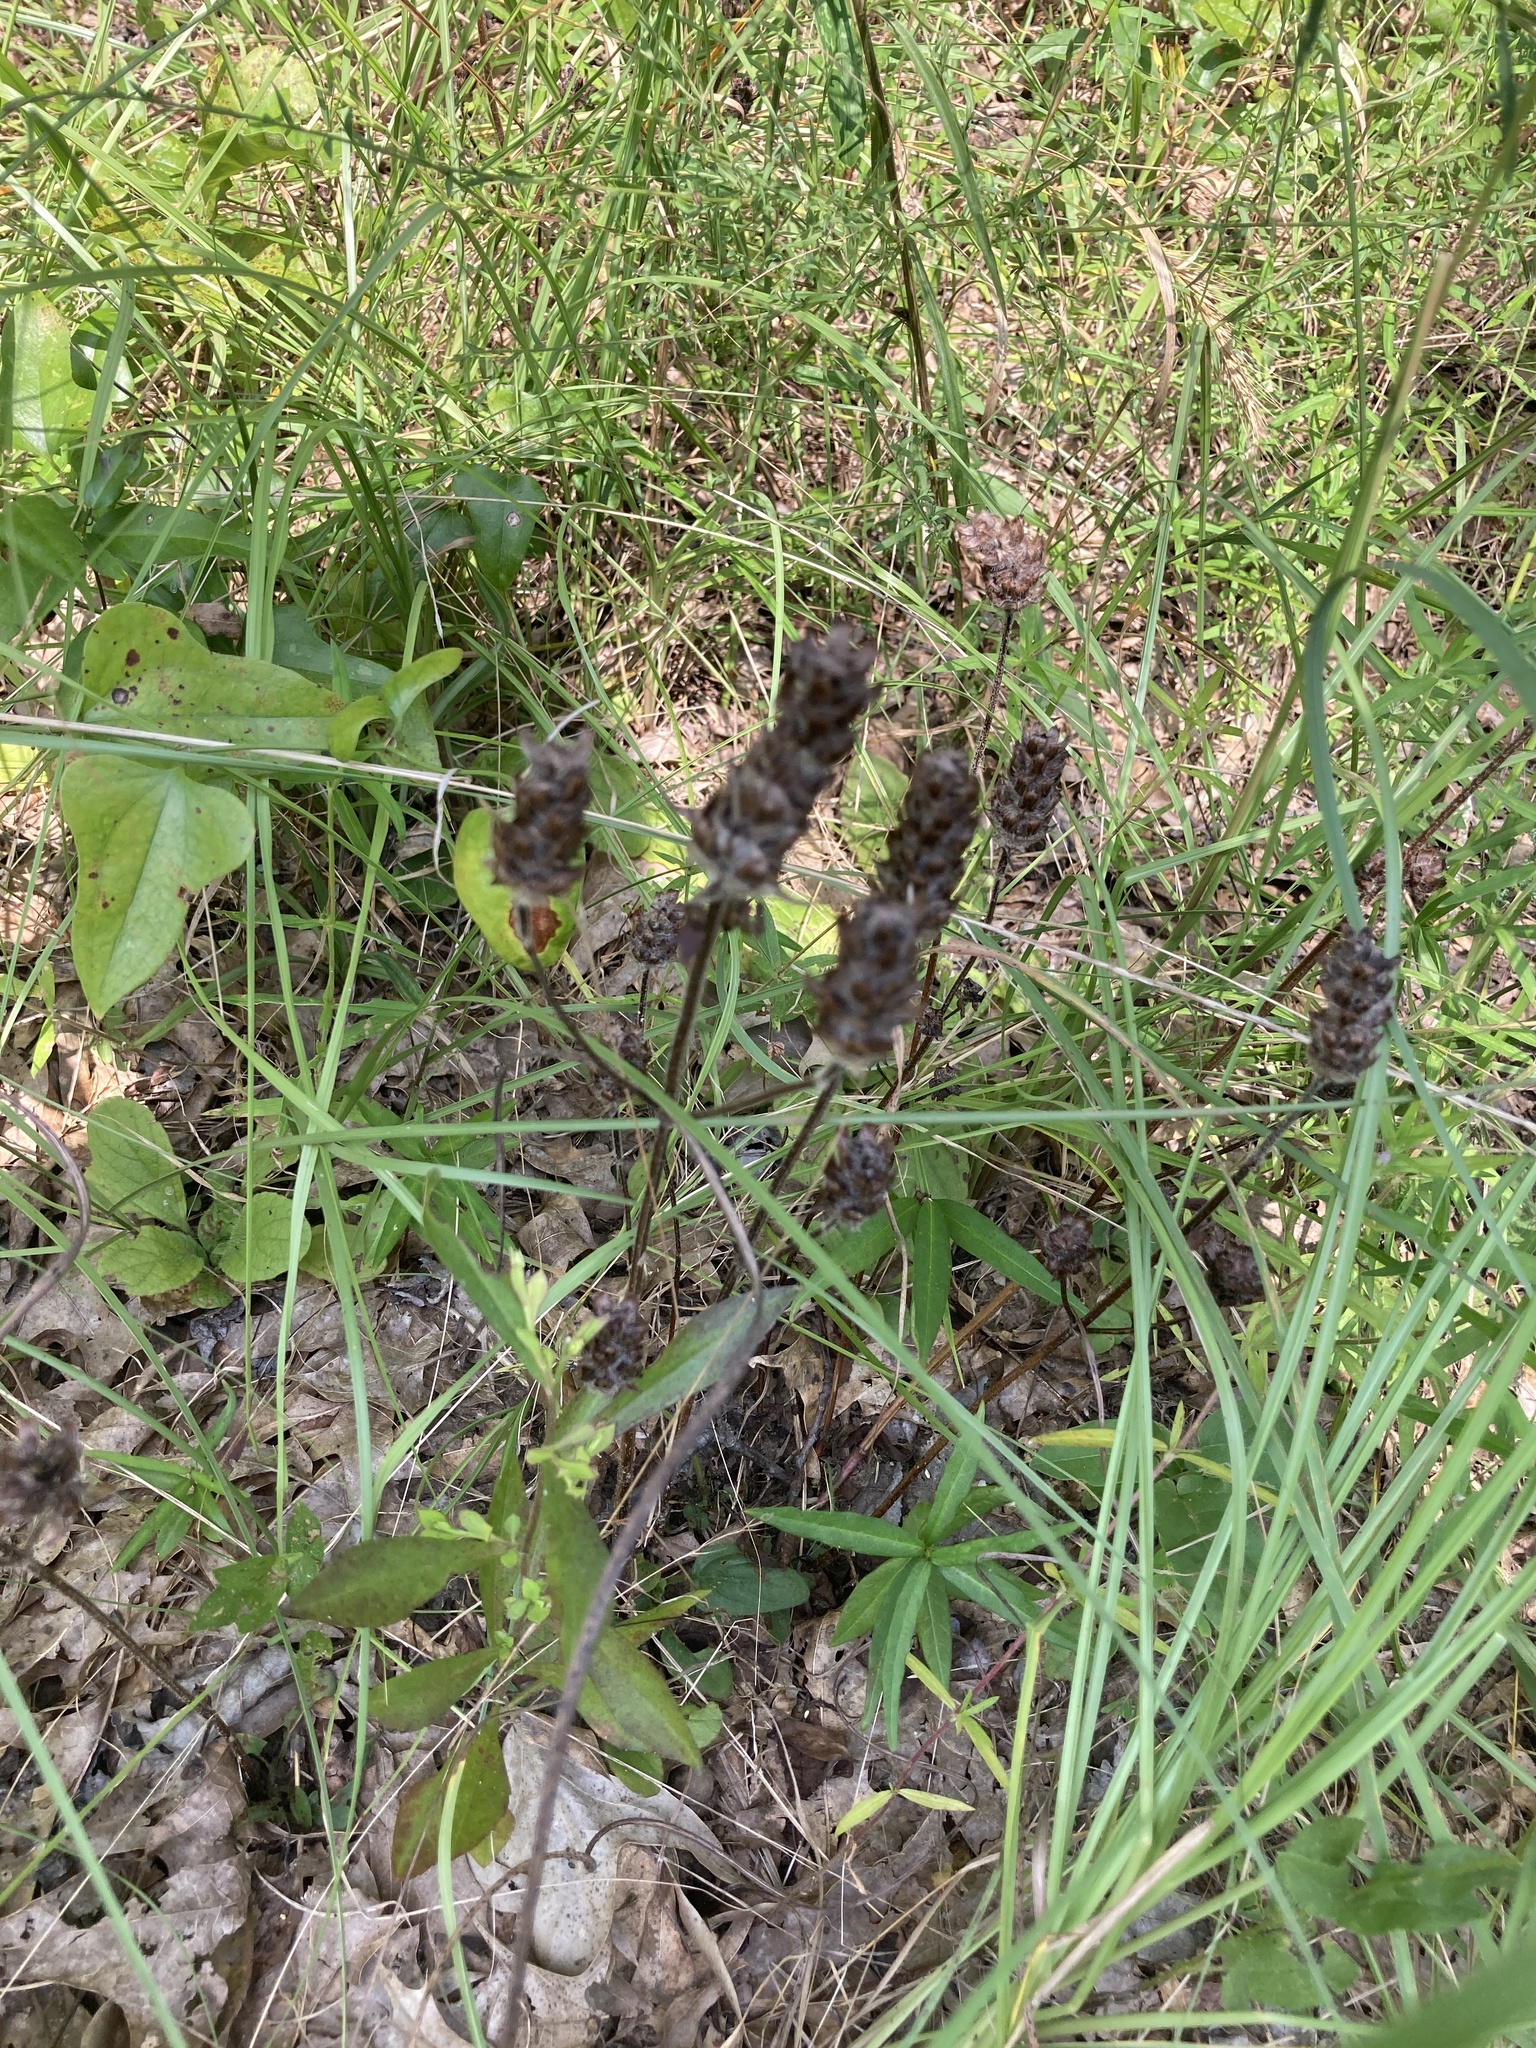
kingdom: Plantae
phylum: Tracheophyta
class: Magnoliopsida
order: Lamiales
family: Lamiaceae
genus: Prunella
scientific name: Prunella vulgaris
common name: Heal-all
